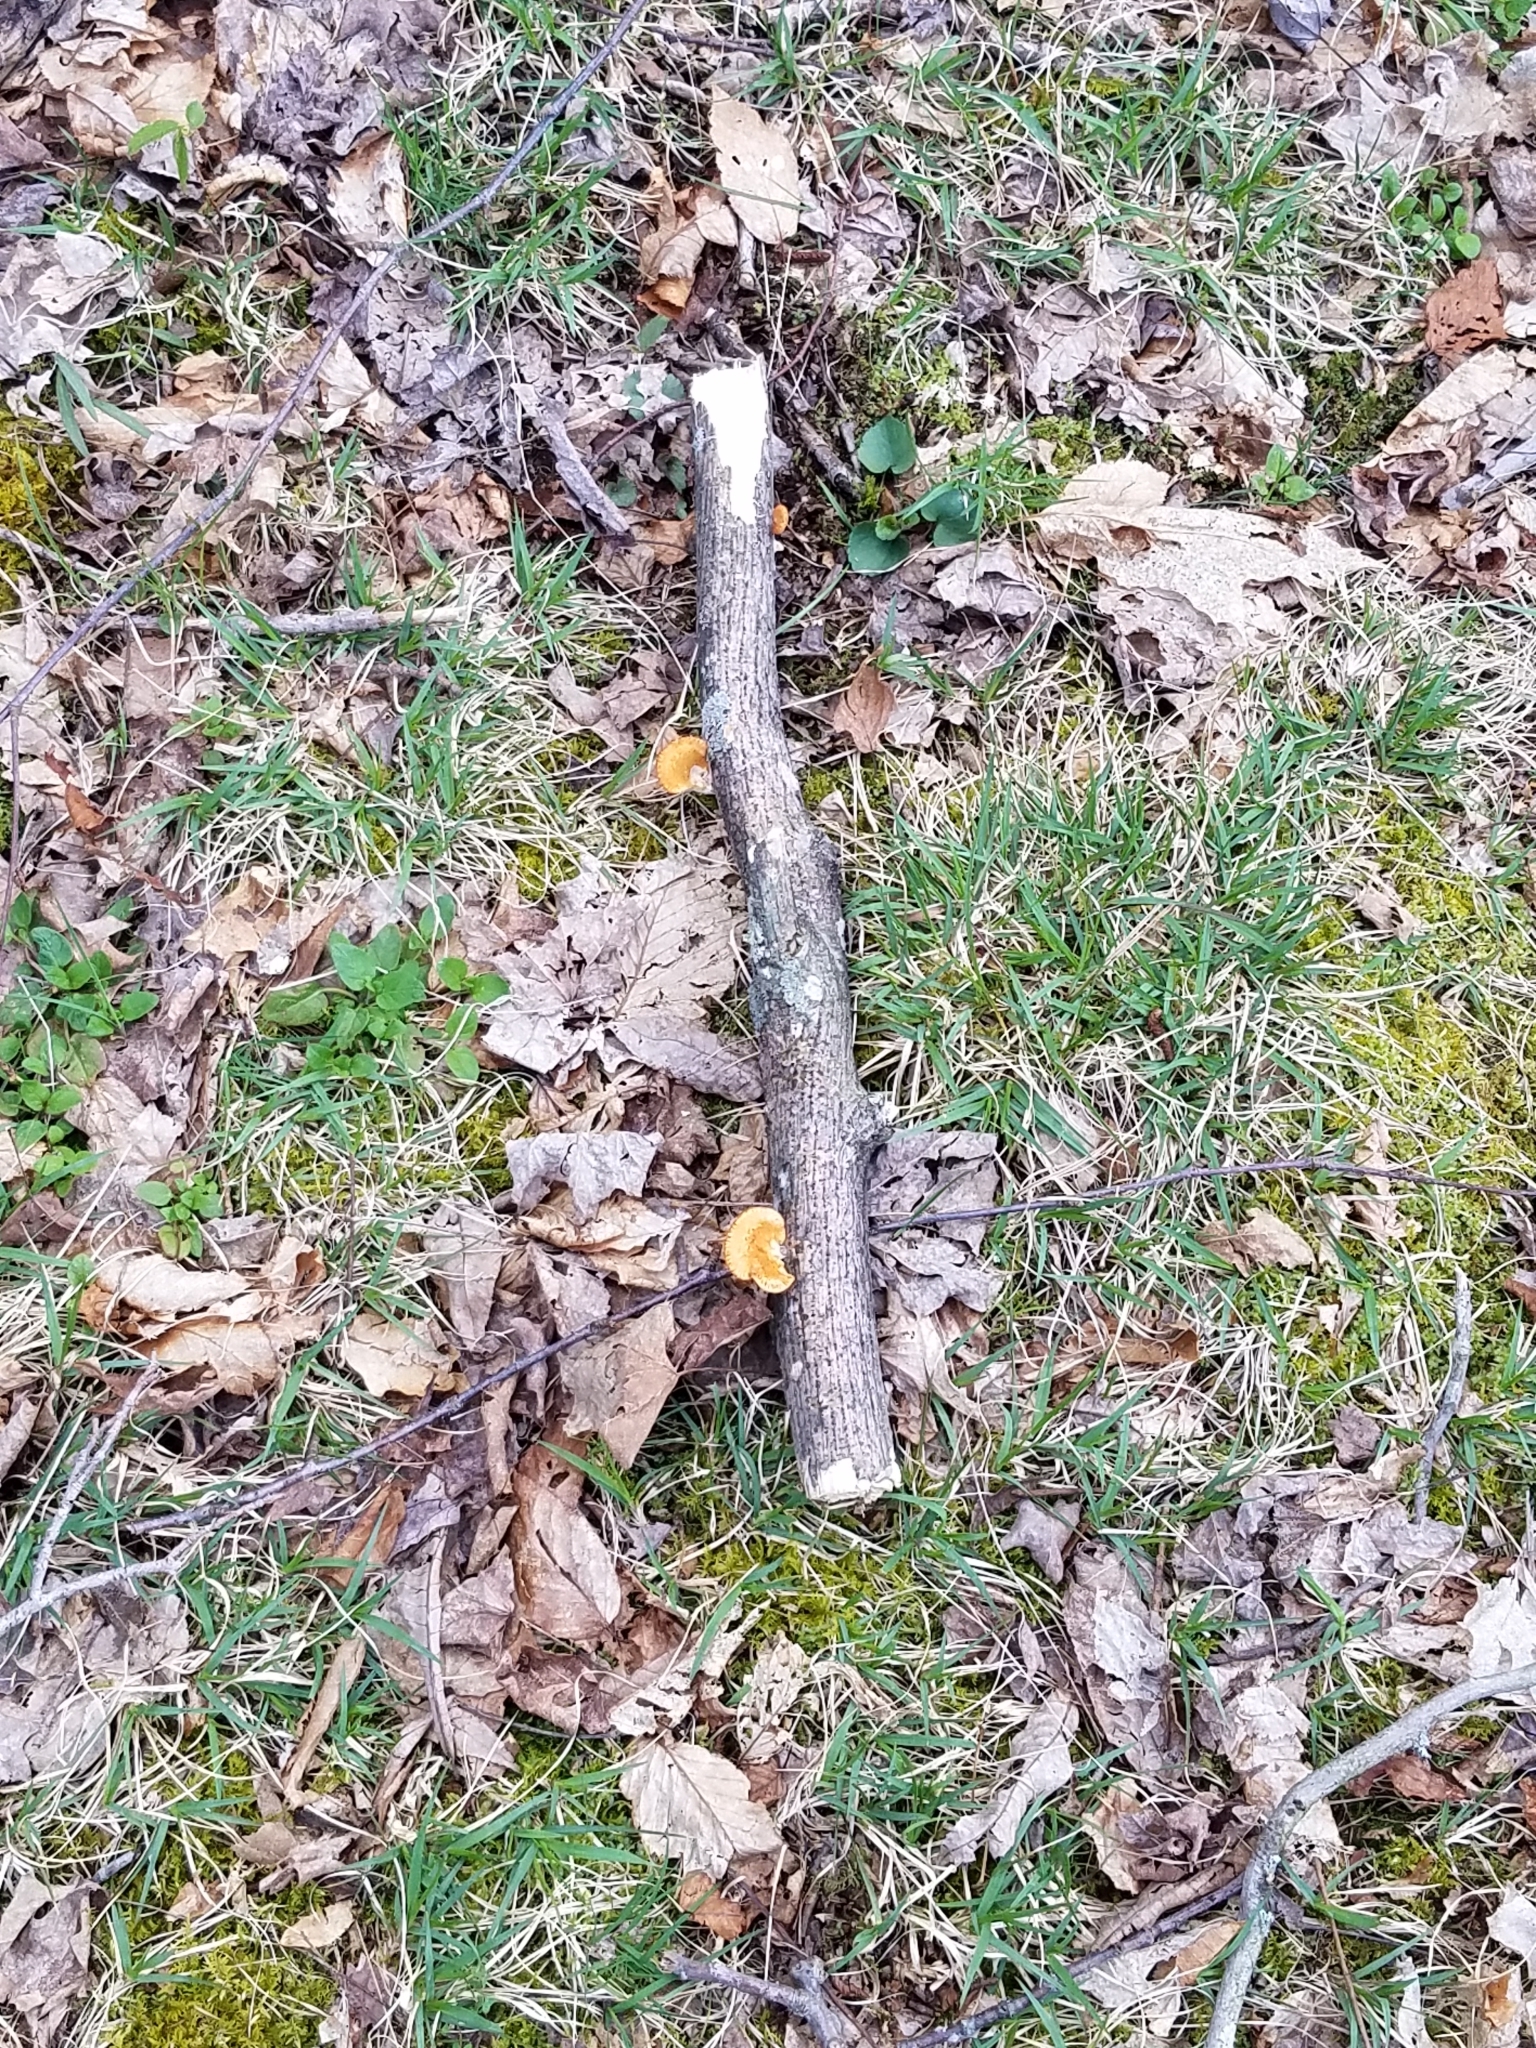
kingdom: Fungi
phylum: Basidiomycota
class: Agaricomycetes
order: Polyporales
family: Polyporaceae
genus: Neofavolus
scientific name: Neofavolus alveolaris
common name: Hexagonal-pored polypore
